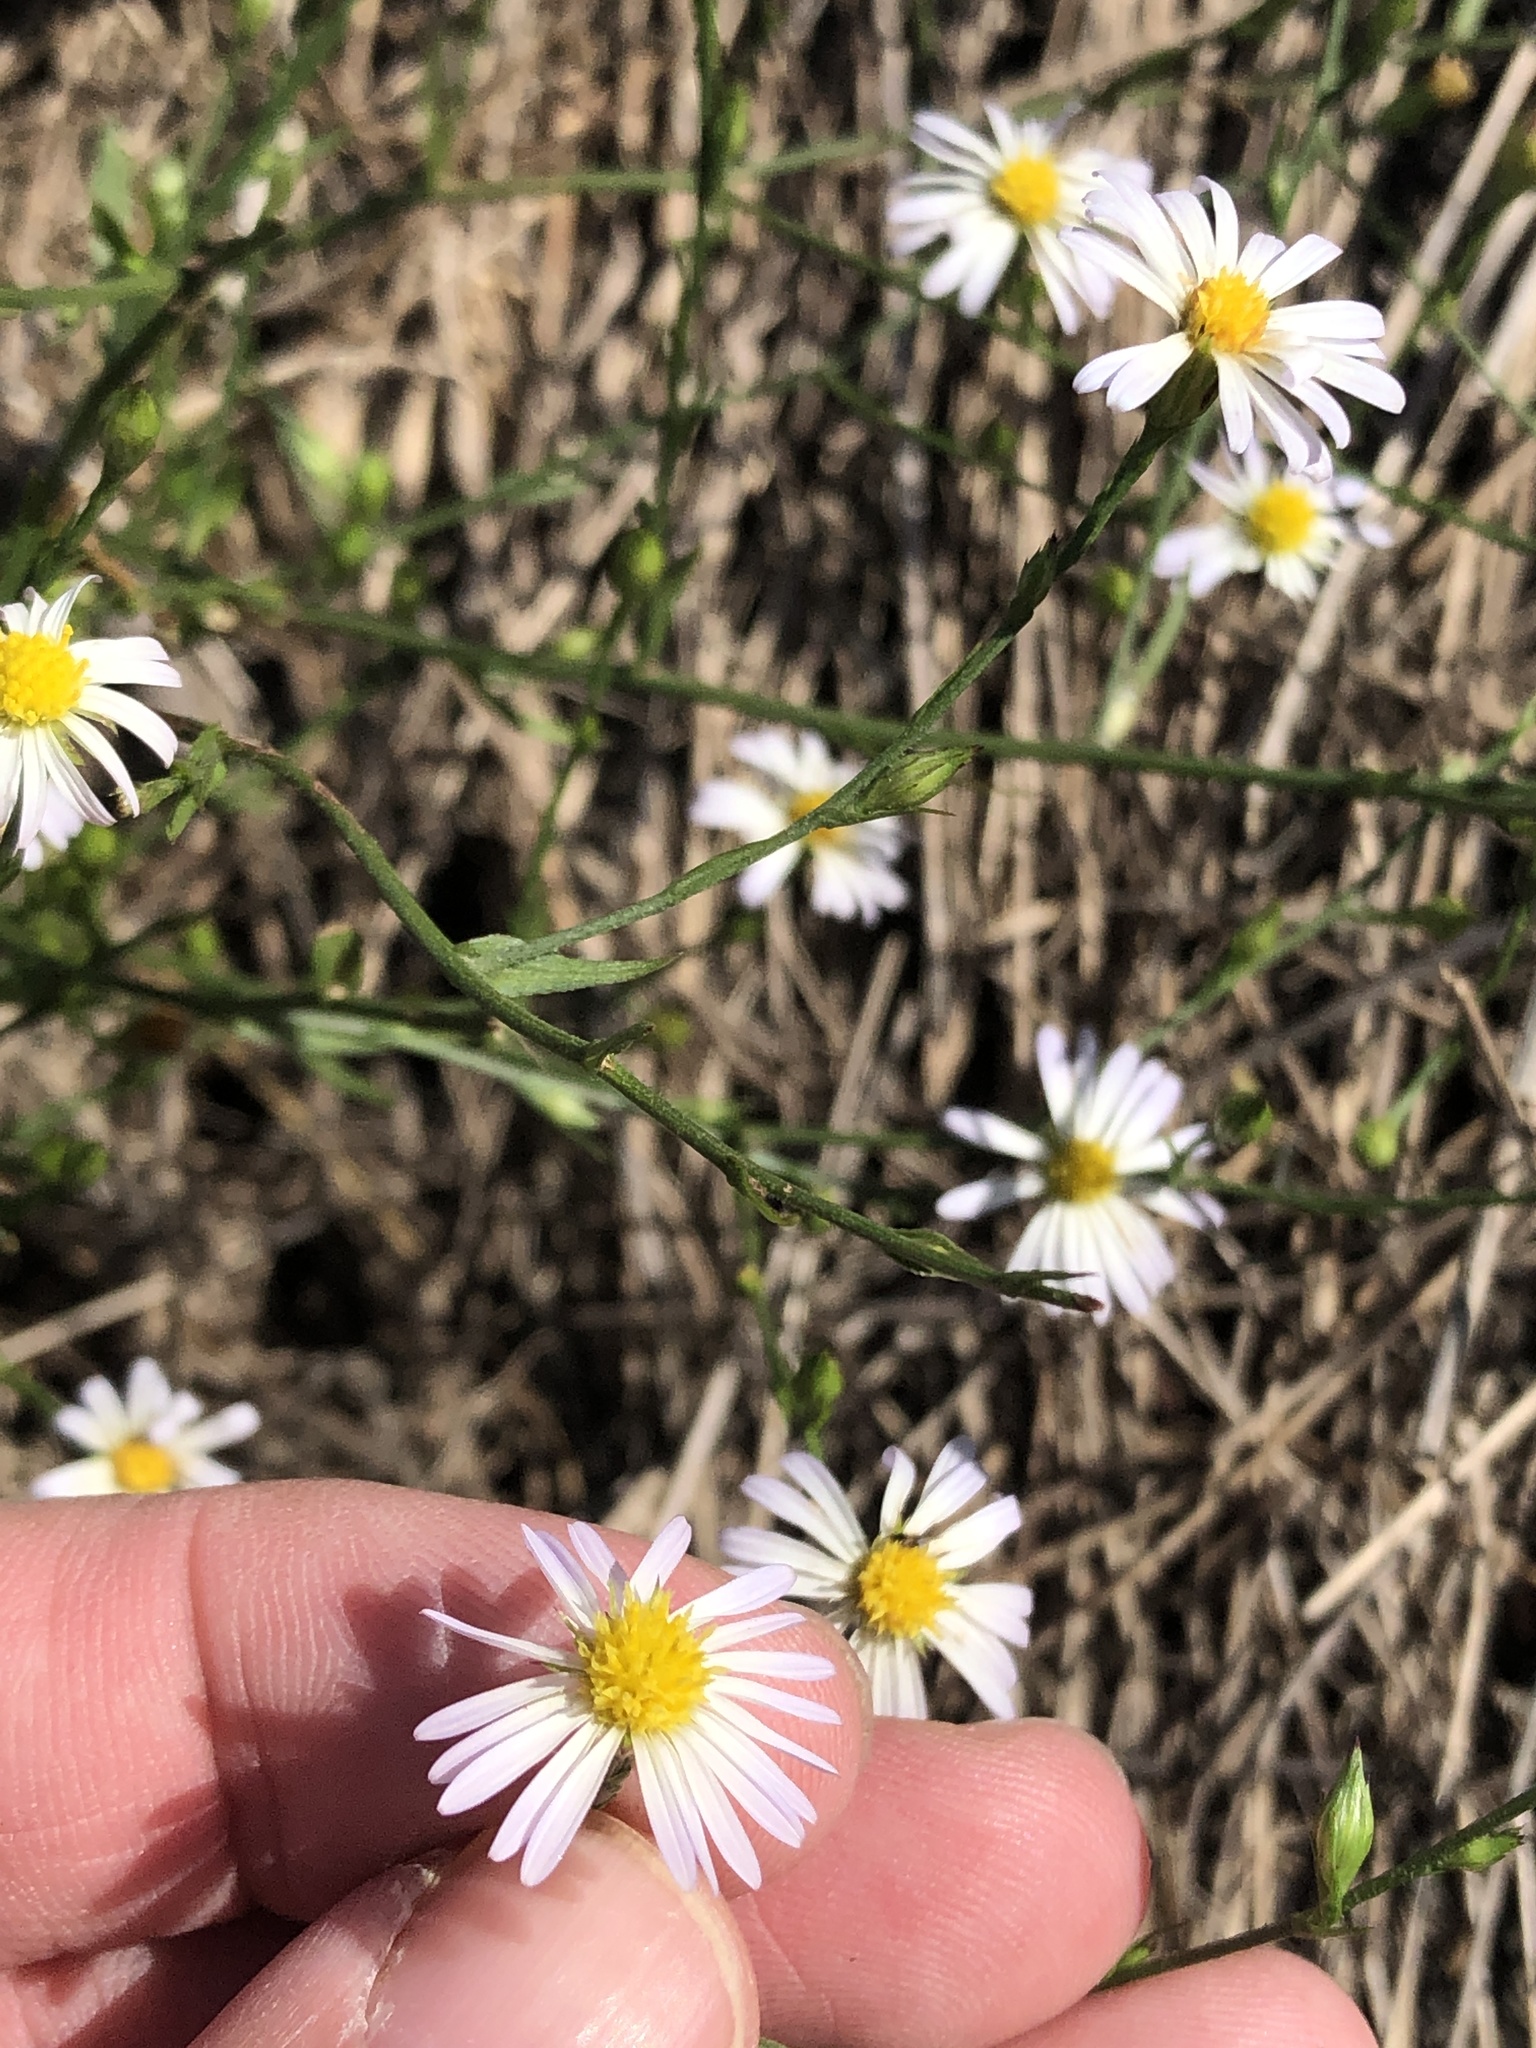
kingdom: Plantae
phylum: Tracheophyta
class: Magnoliopsida
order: Asterales
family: Asteraceae
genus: Symphyotrichum
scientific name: Symphyotrichum divaricatum
